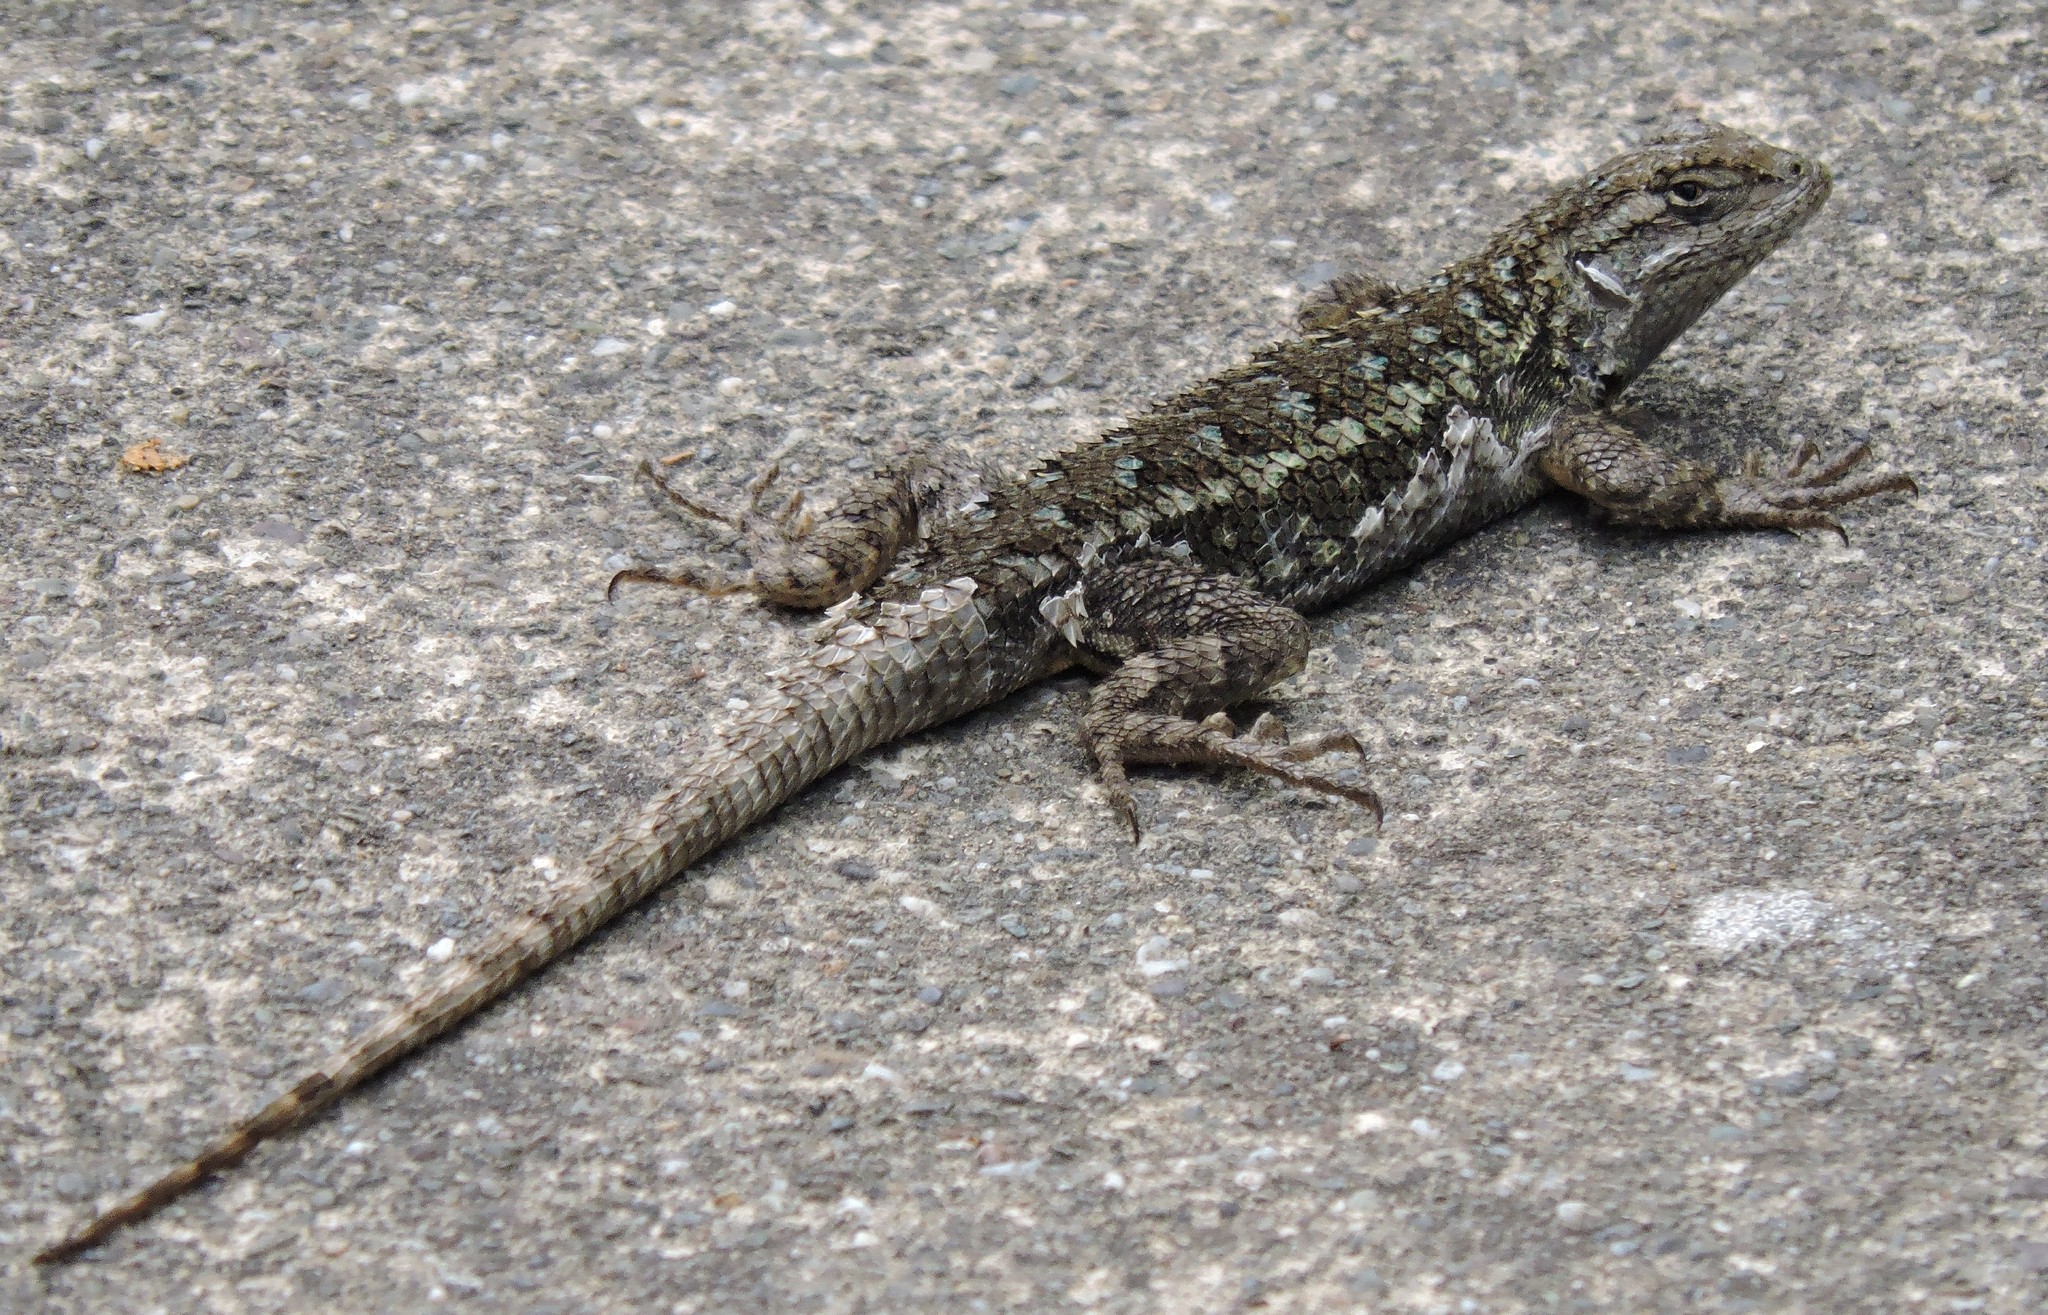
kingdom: Animalia
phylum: Chordata
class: Squamata
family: Phrynosomatidae
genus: Sceloporus
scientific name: Sceloporus occidentalis
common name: Western fence lizard
